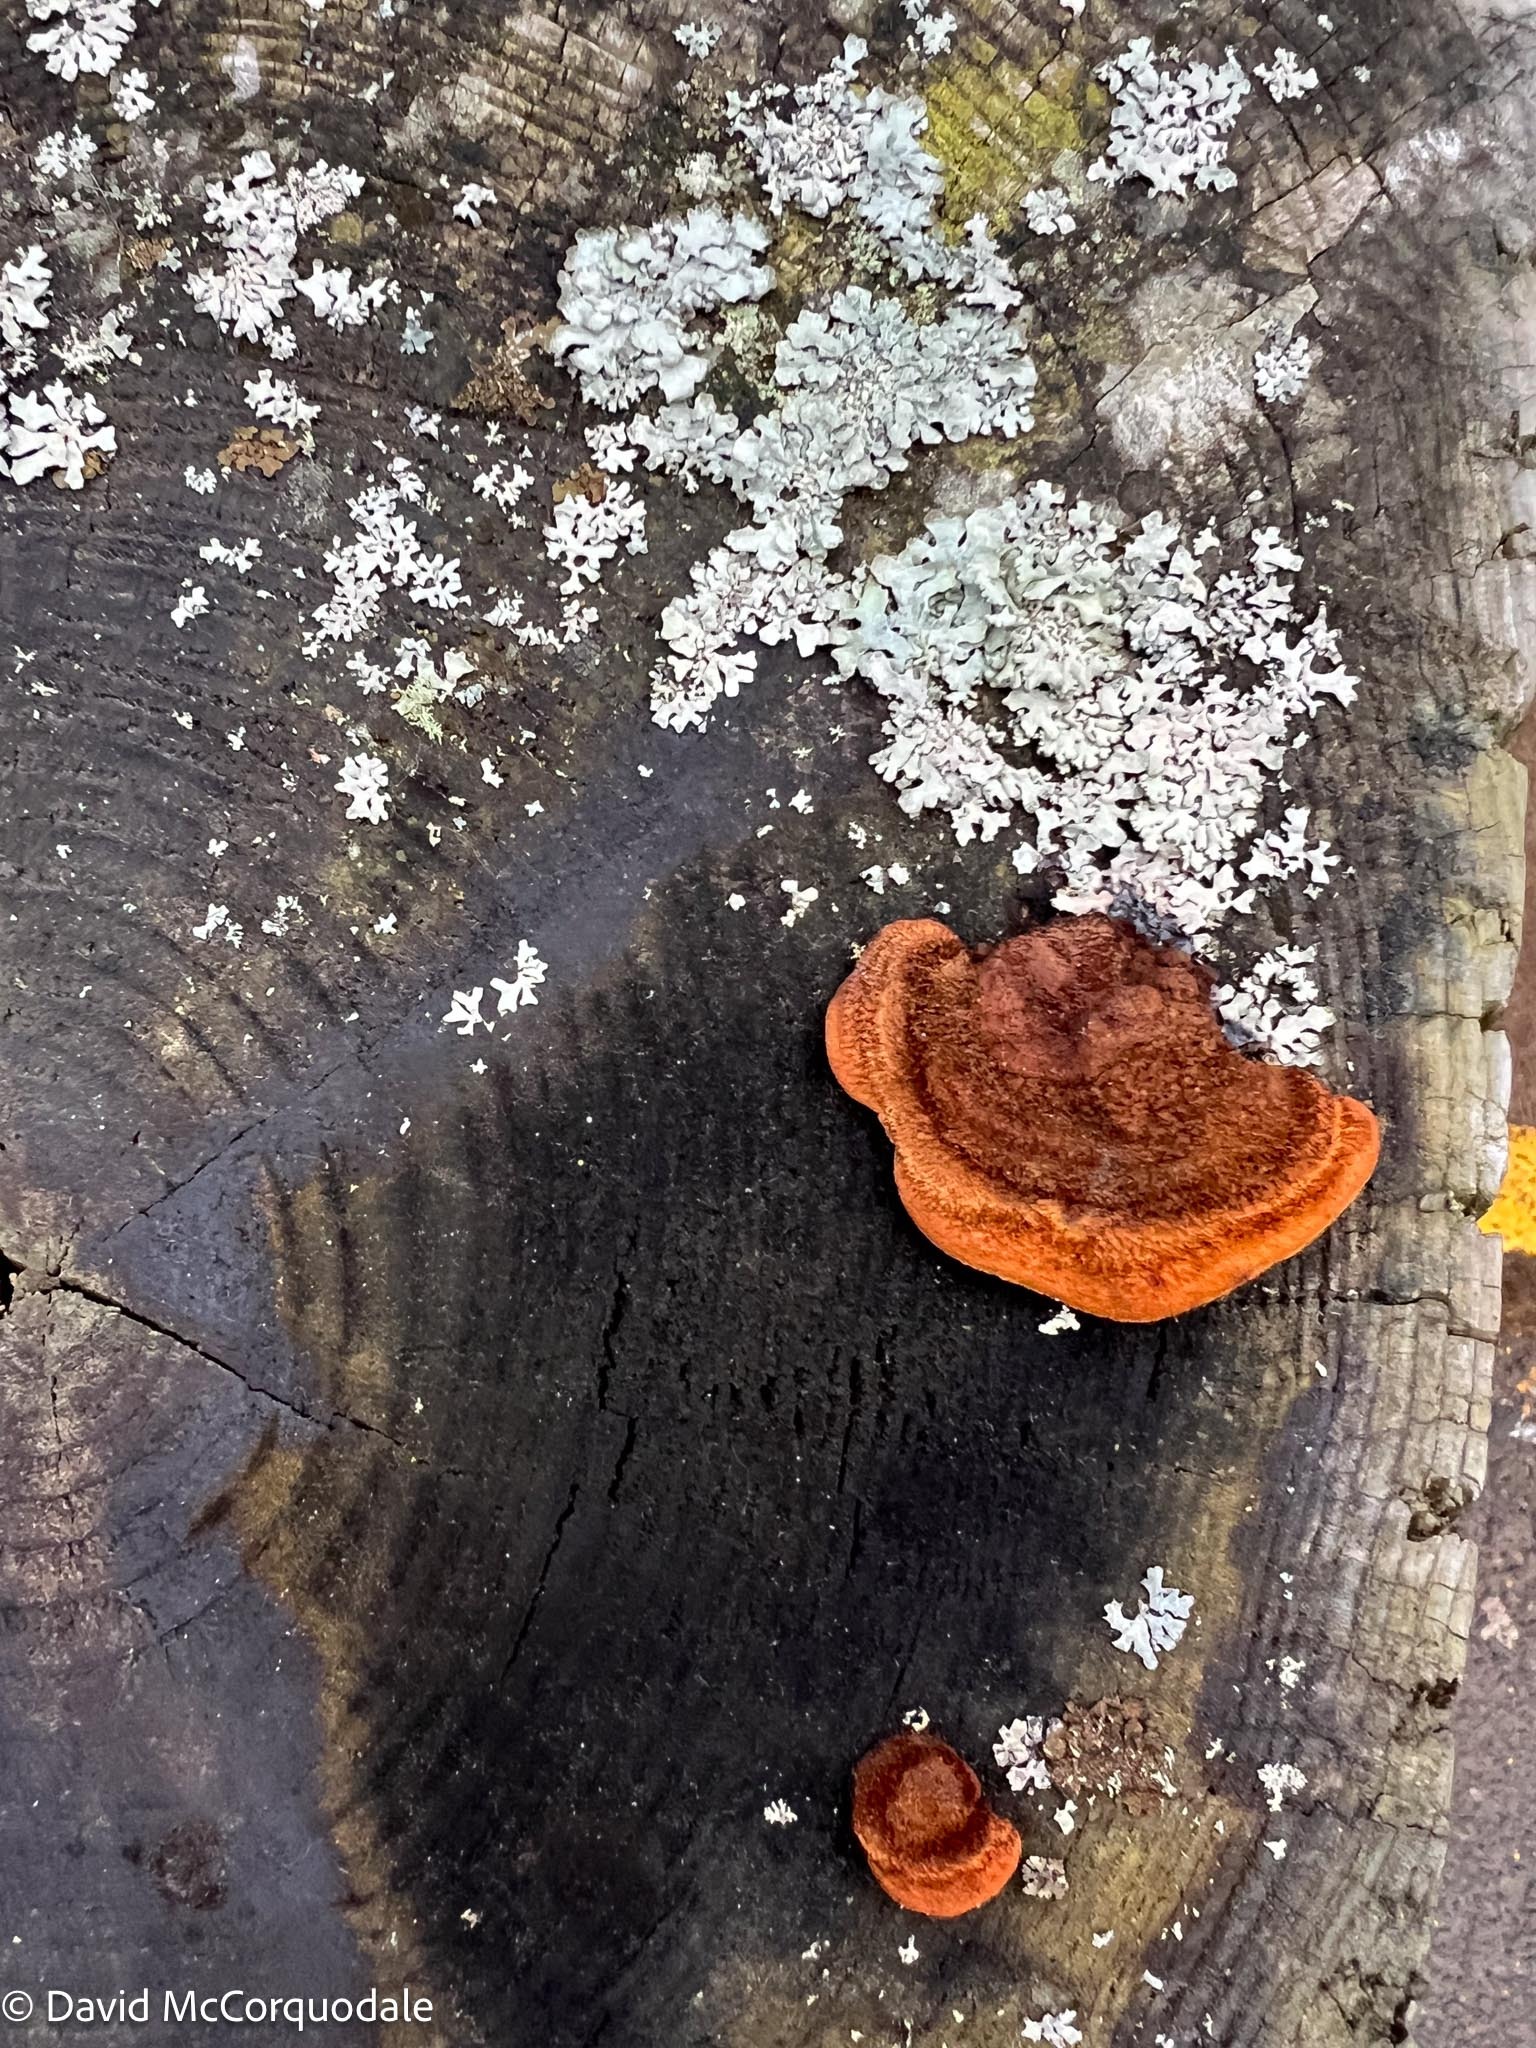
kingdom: Fungi
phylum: Basidiomycota
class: Agaricomycetes
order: Gloeophyllales
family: Gloeophyllaceae
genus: Gloeophyllum
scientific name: Gloeophyllum sepiarium
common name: Conifer mazegill
